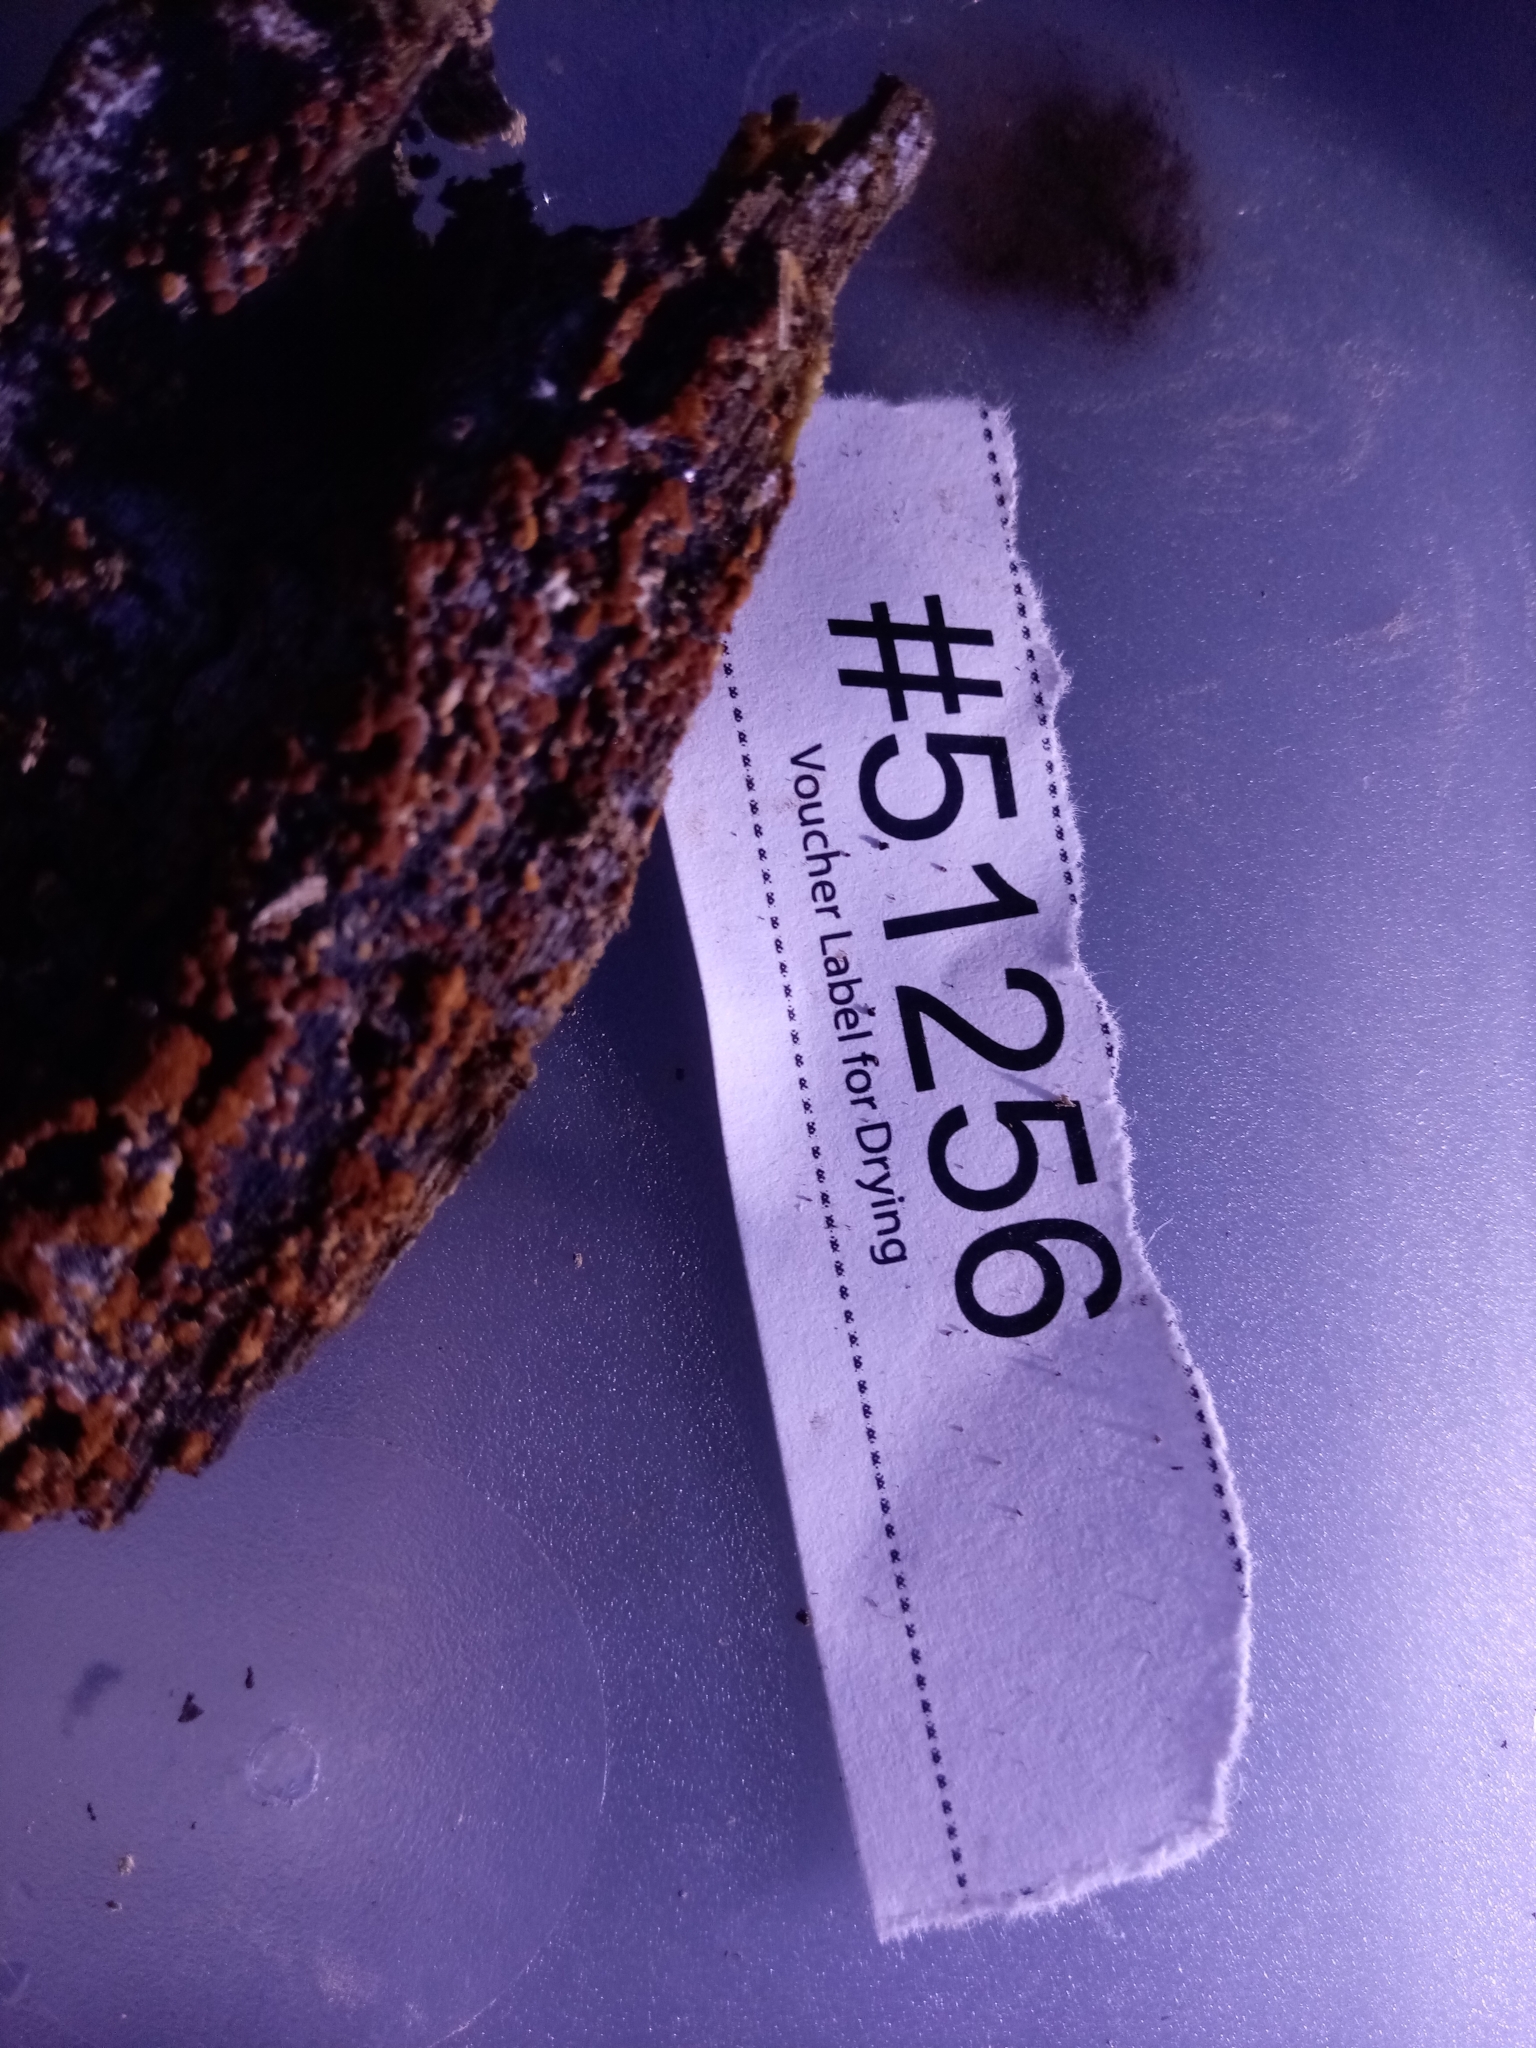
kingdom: Fungi
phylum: Ascomycota
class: Sordariomycetes
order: Sordariales
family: Lasiosphaeriaceae
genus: Lasiosphaeria
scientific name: Lasiosphaeria ovina
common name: Woolly woodwart
